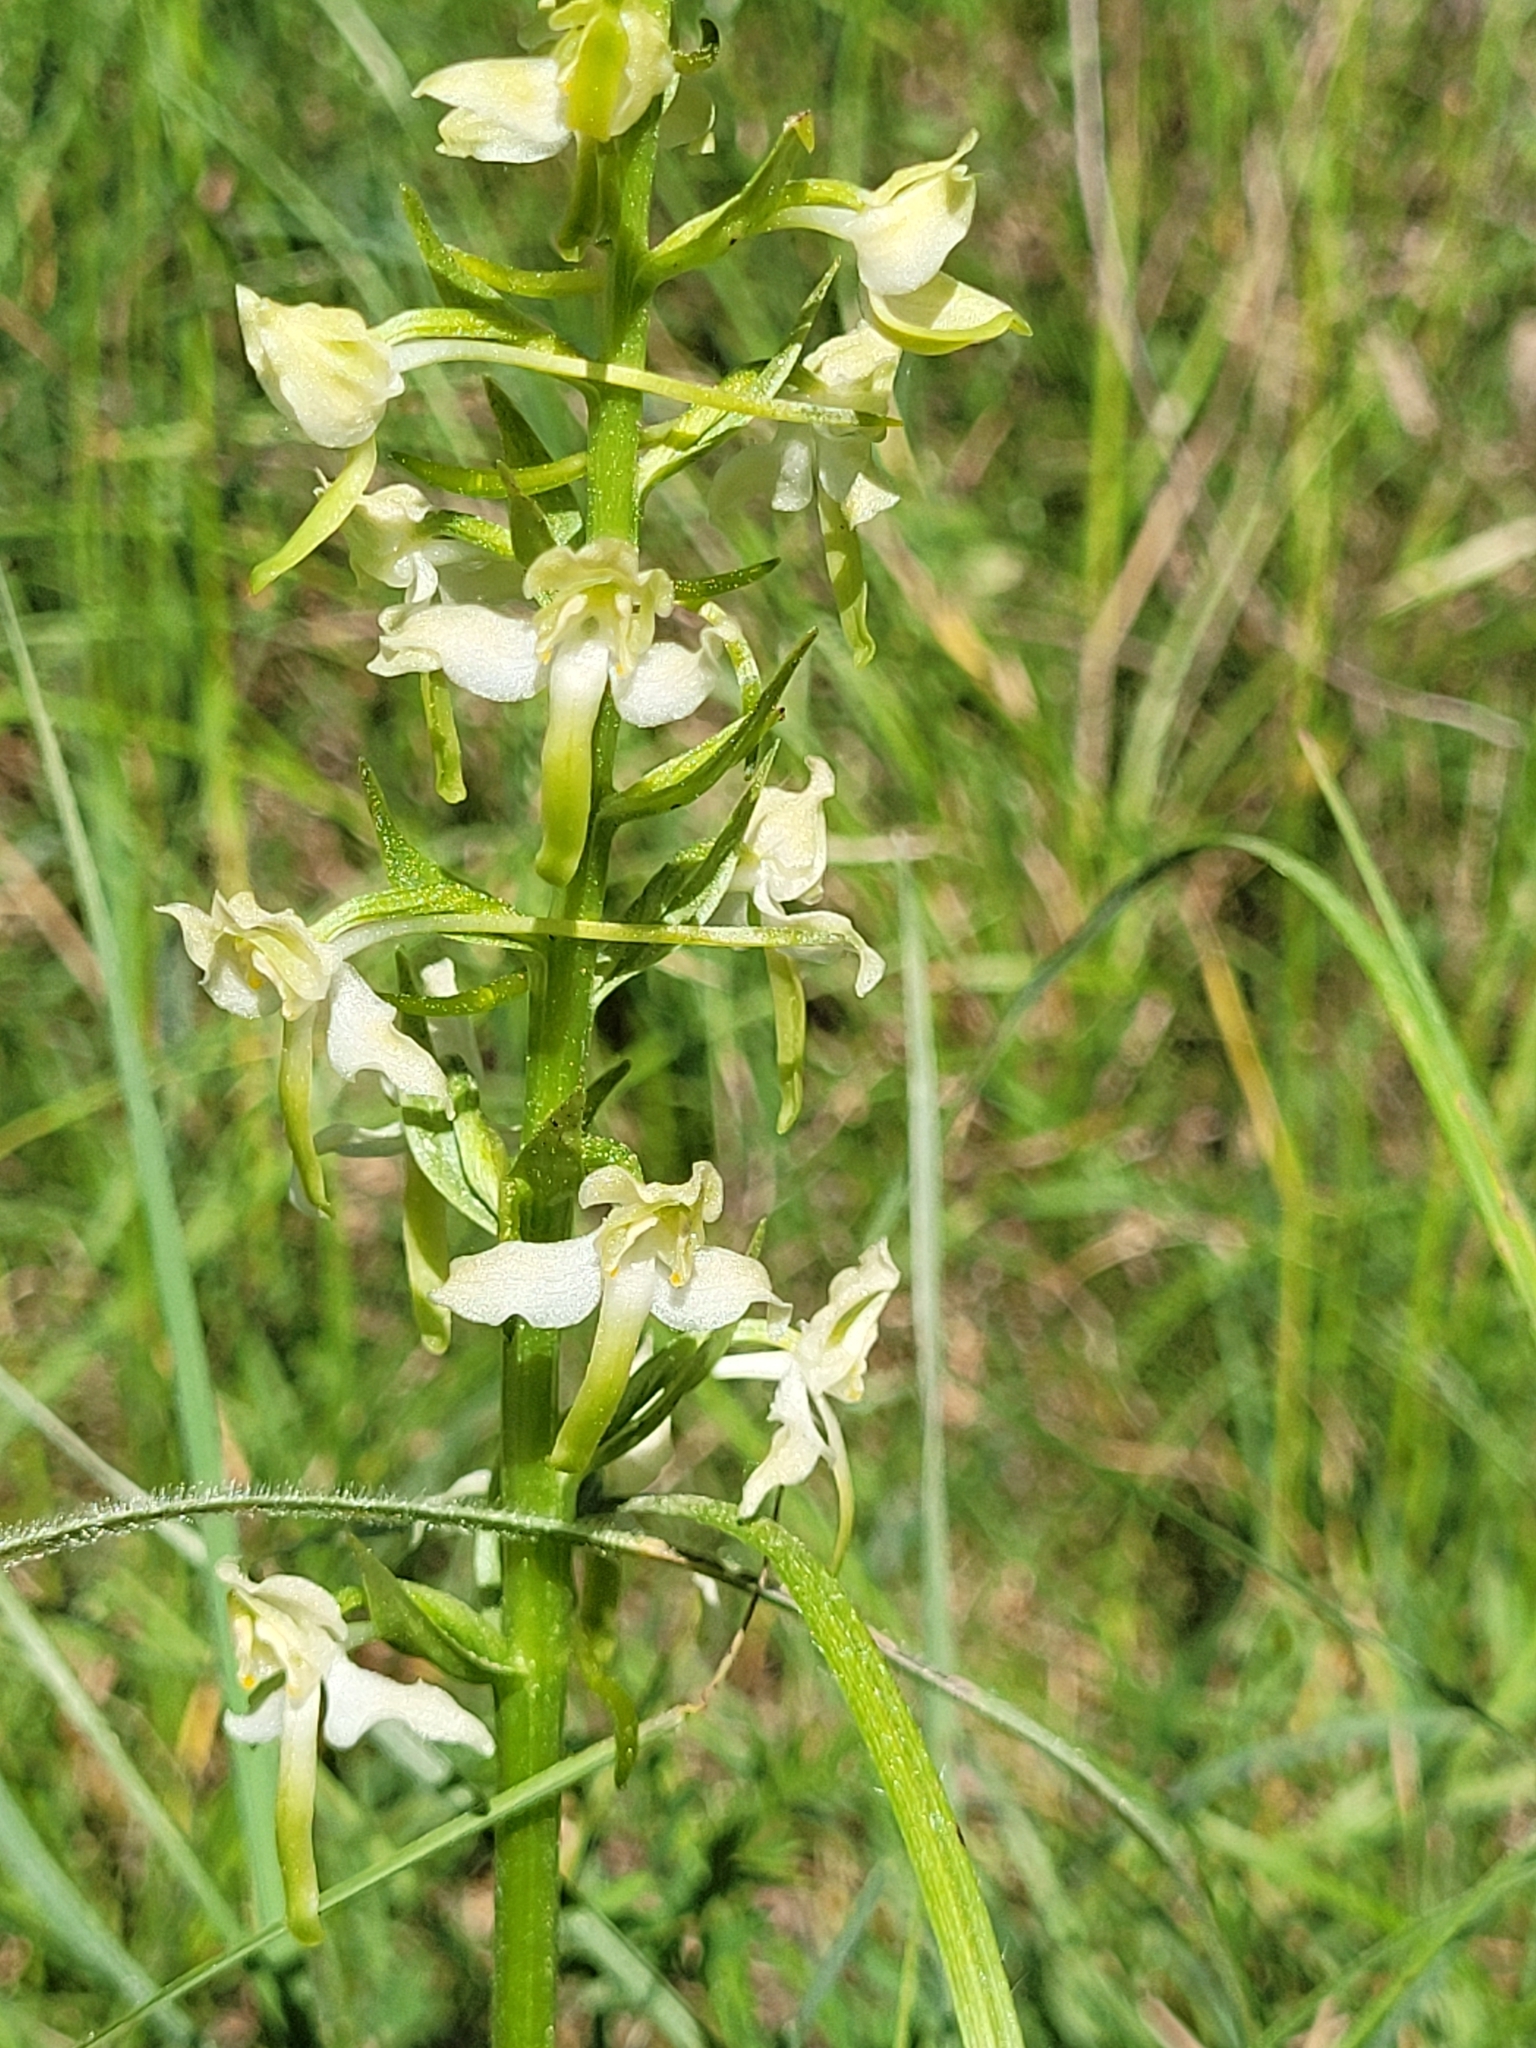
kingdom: Plantae
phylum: Tracheophyta
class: Liliopsida
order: Asparagales
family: Orchidaceae
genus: Platanthera
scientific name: Platanthera chlorantha
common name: Greater butterfly-orchid
